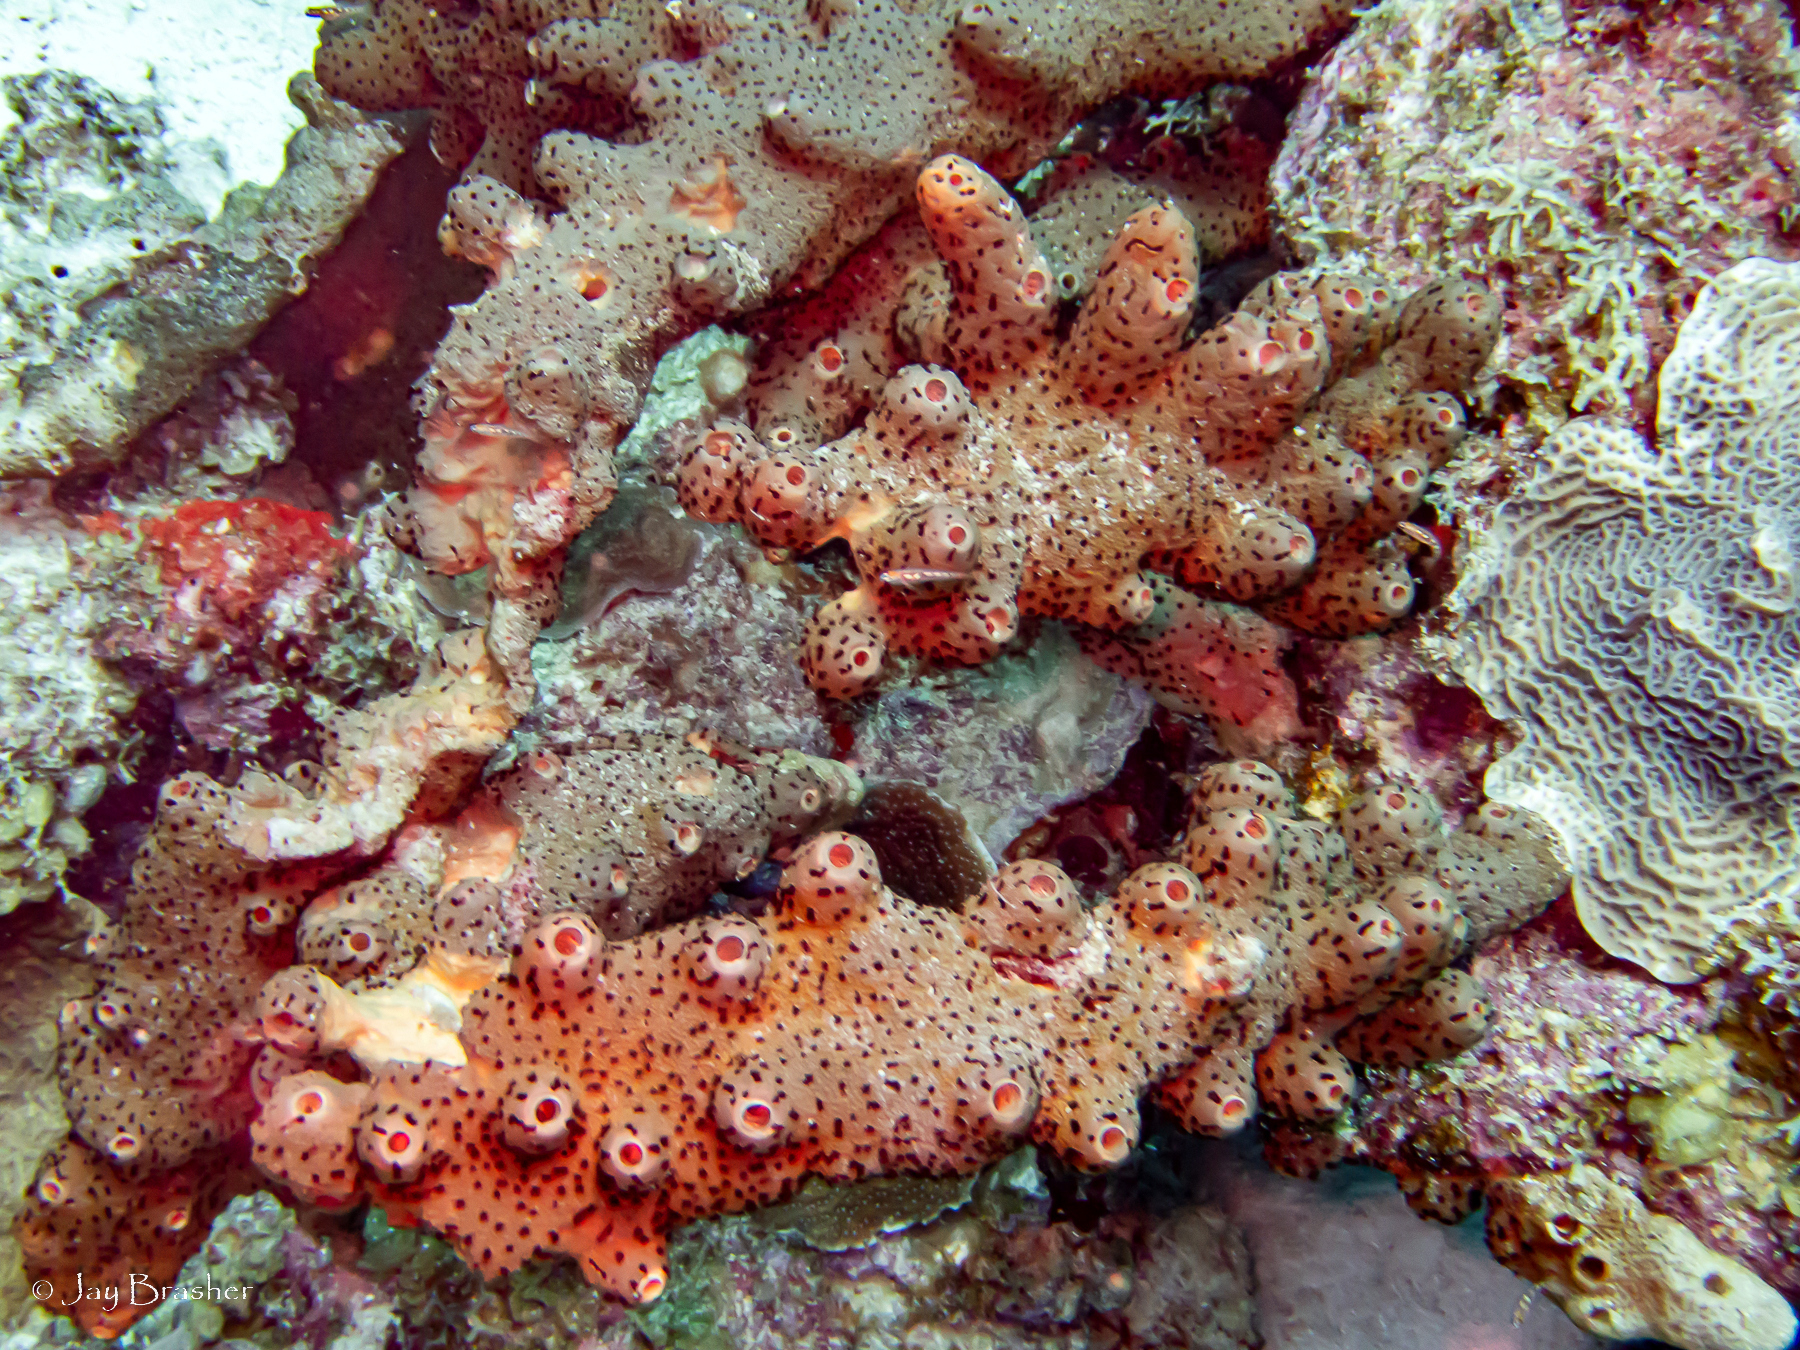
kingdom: Animalia
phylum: Porifera
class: Demospongiae
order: Agelasida
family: Agelasidae
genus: Agelas
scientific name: Agelas conifera
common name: Brown tube sponge
